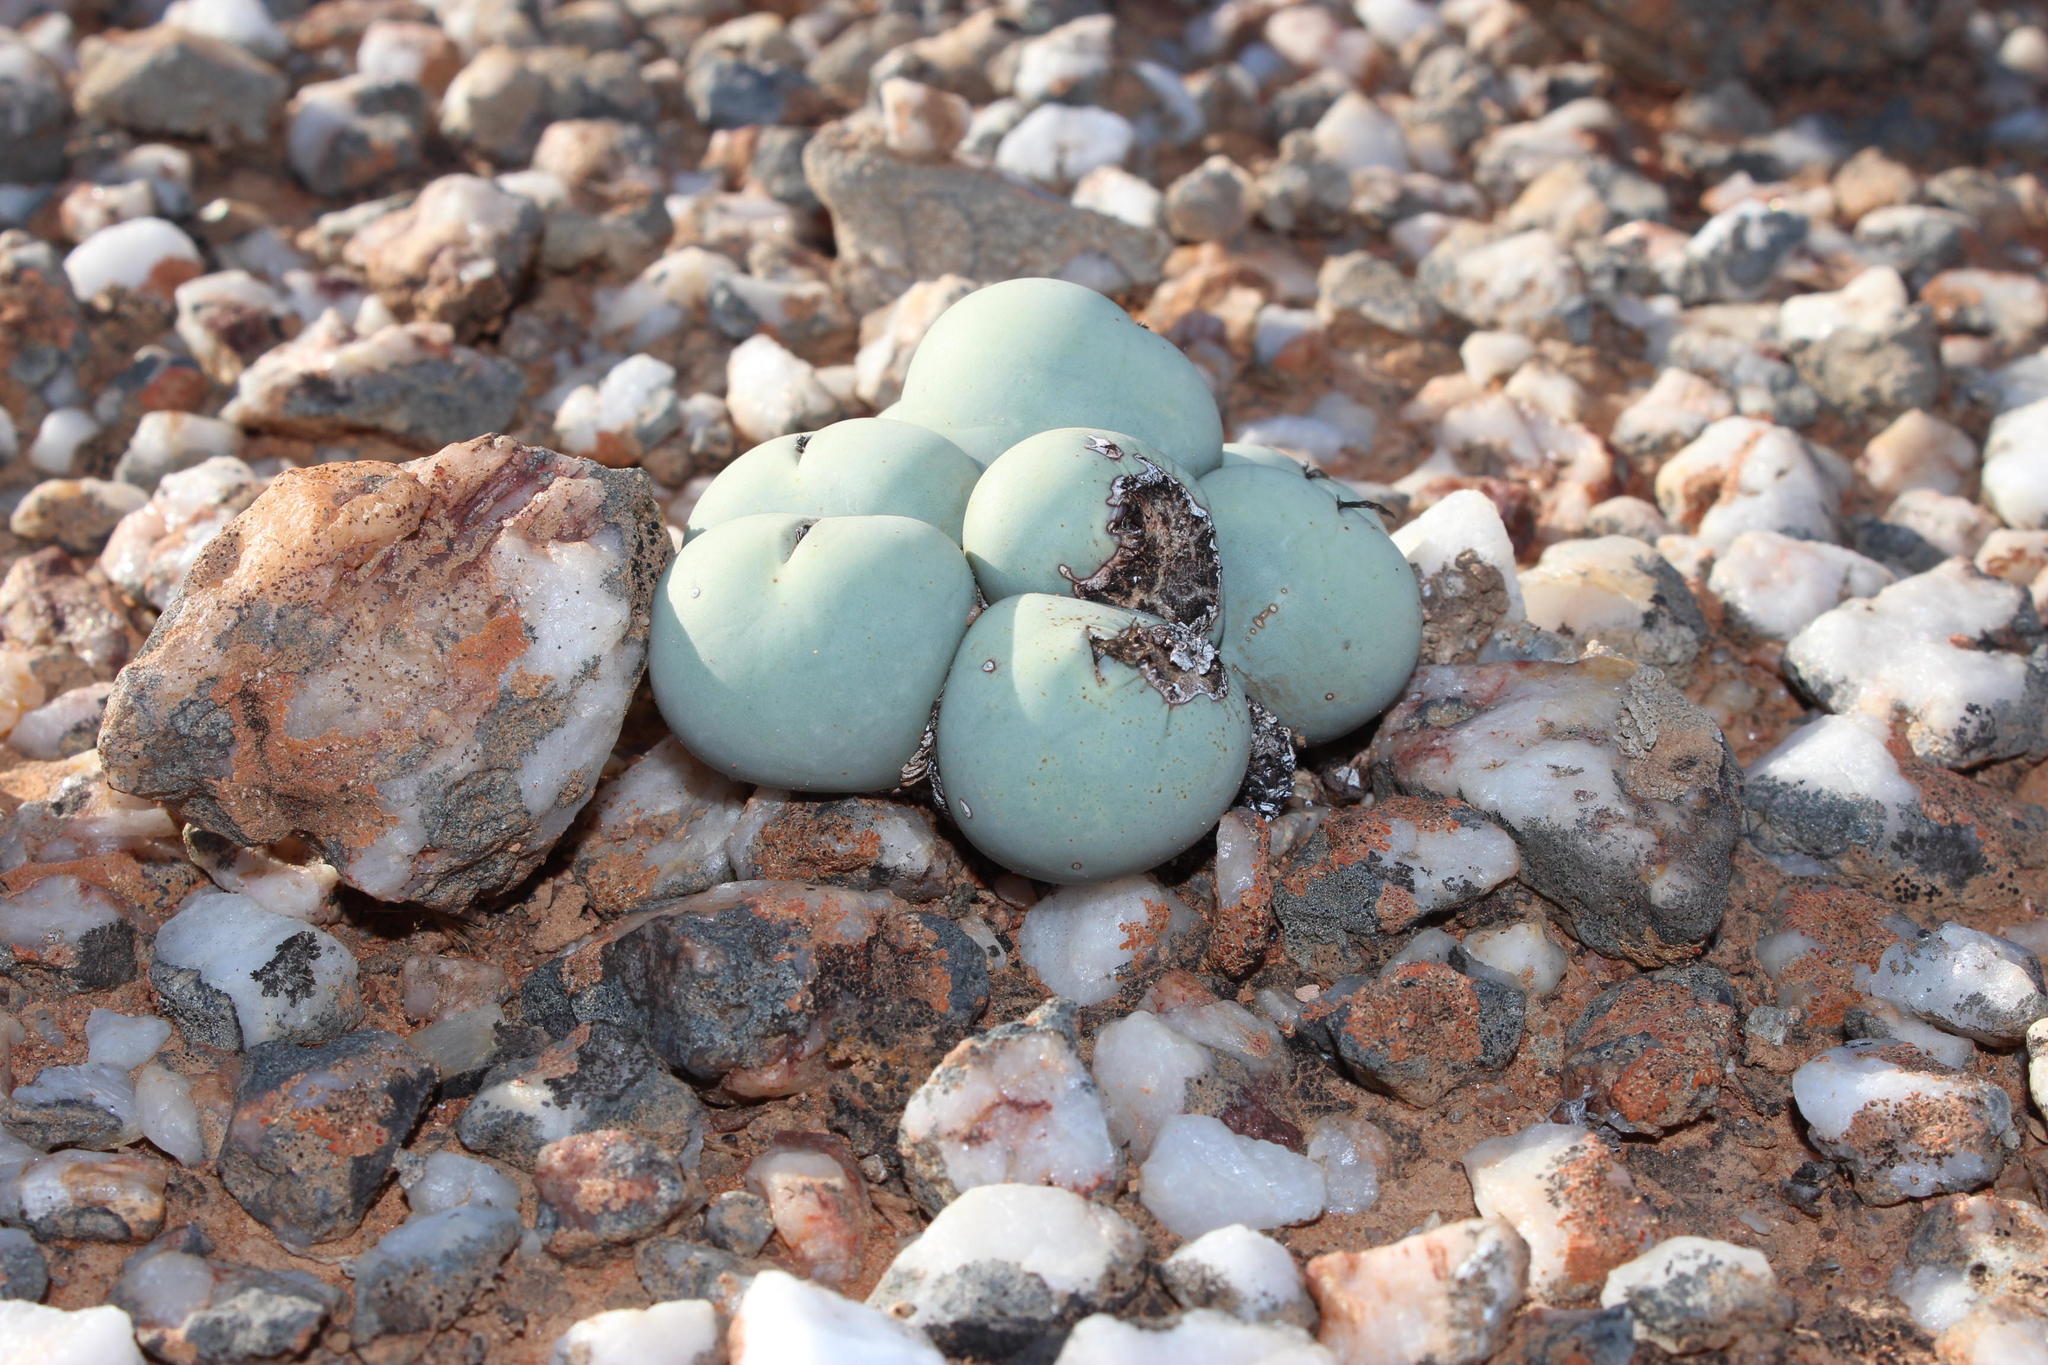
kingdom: Plantae
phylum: Tracheophyta
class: Magnoliopsida
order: Caryophyllales
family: Aizoaceae
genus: Conophytum
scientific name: Conophytum calculus
